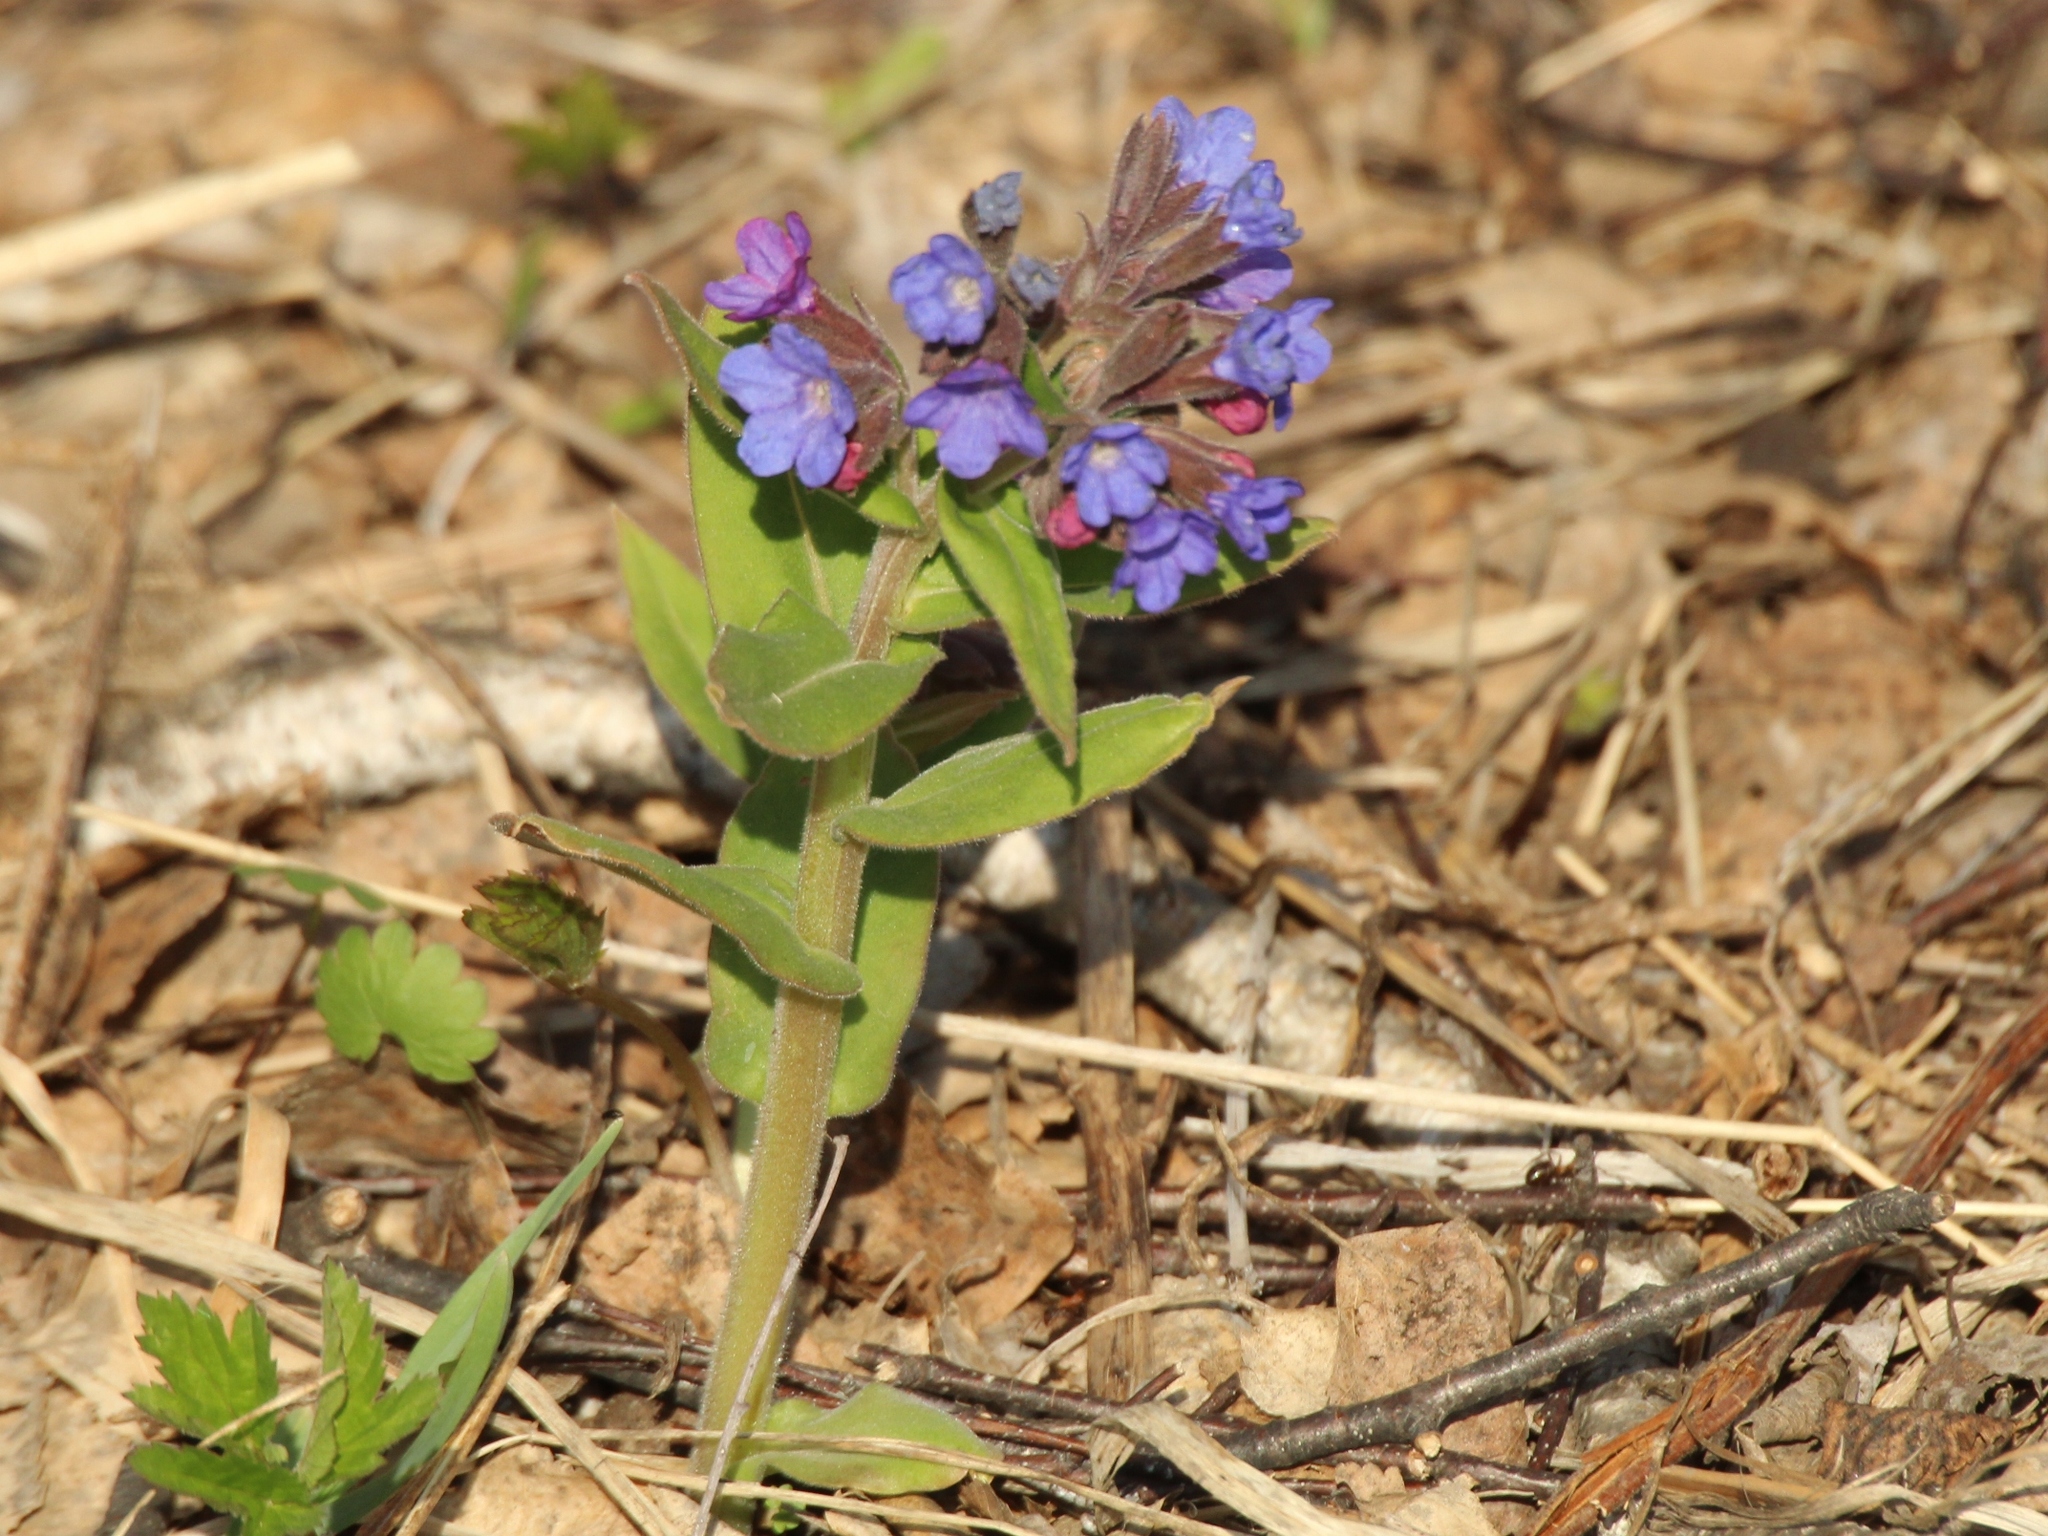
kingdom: Plantae
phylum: Tracheophyta
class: Magnoliopsida
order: Boraginales
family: Boraginaceae
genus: Pulmonaria
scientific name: Pulmonaria mollis
